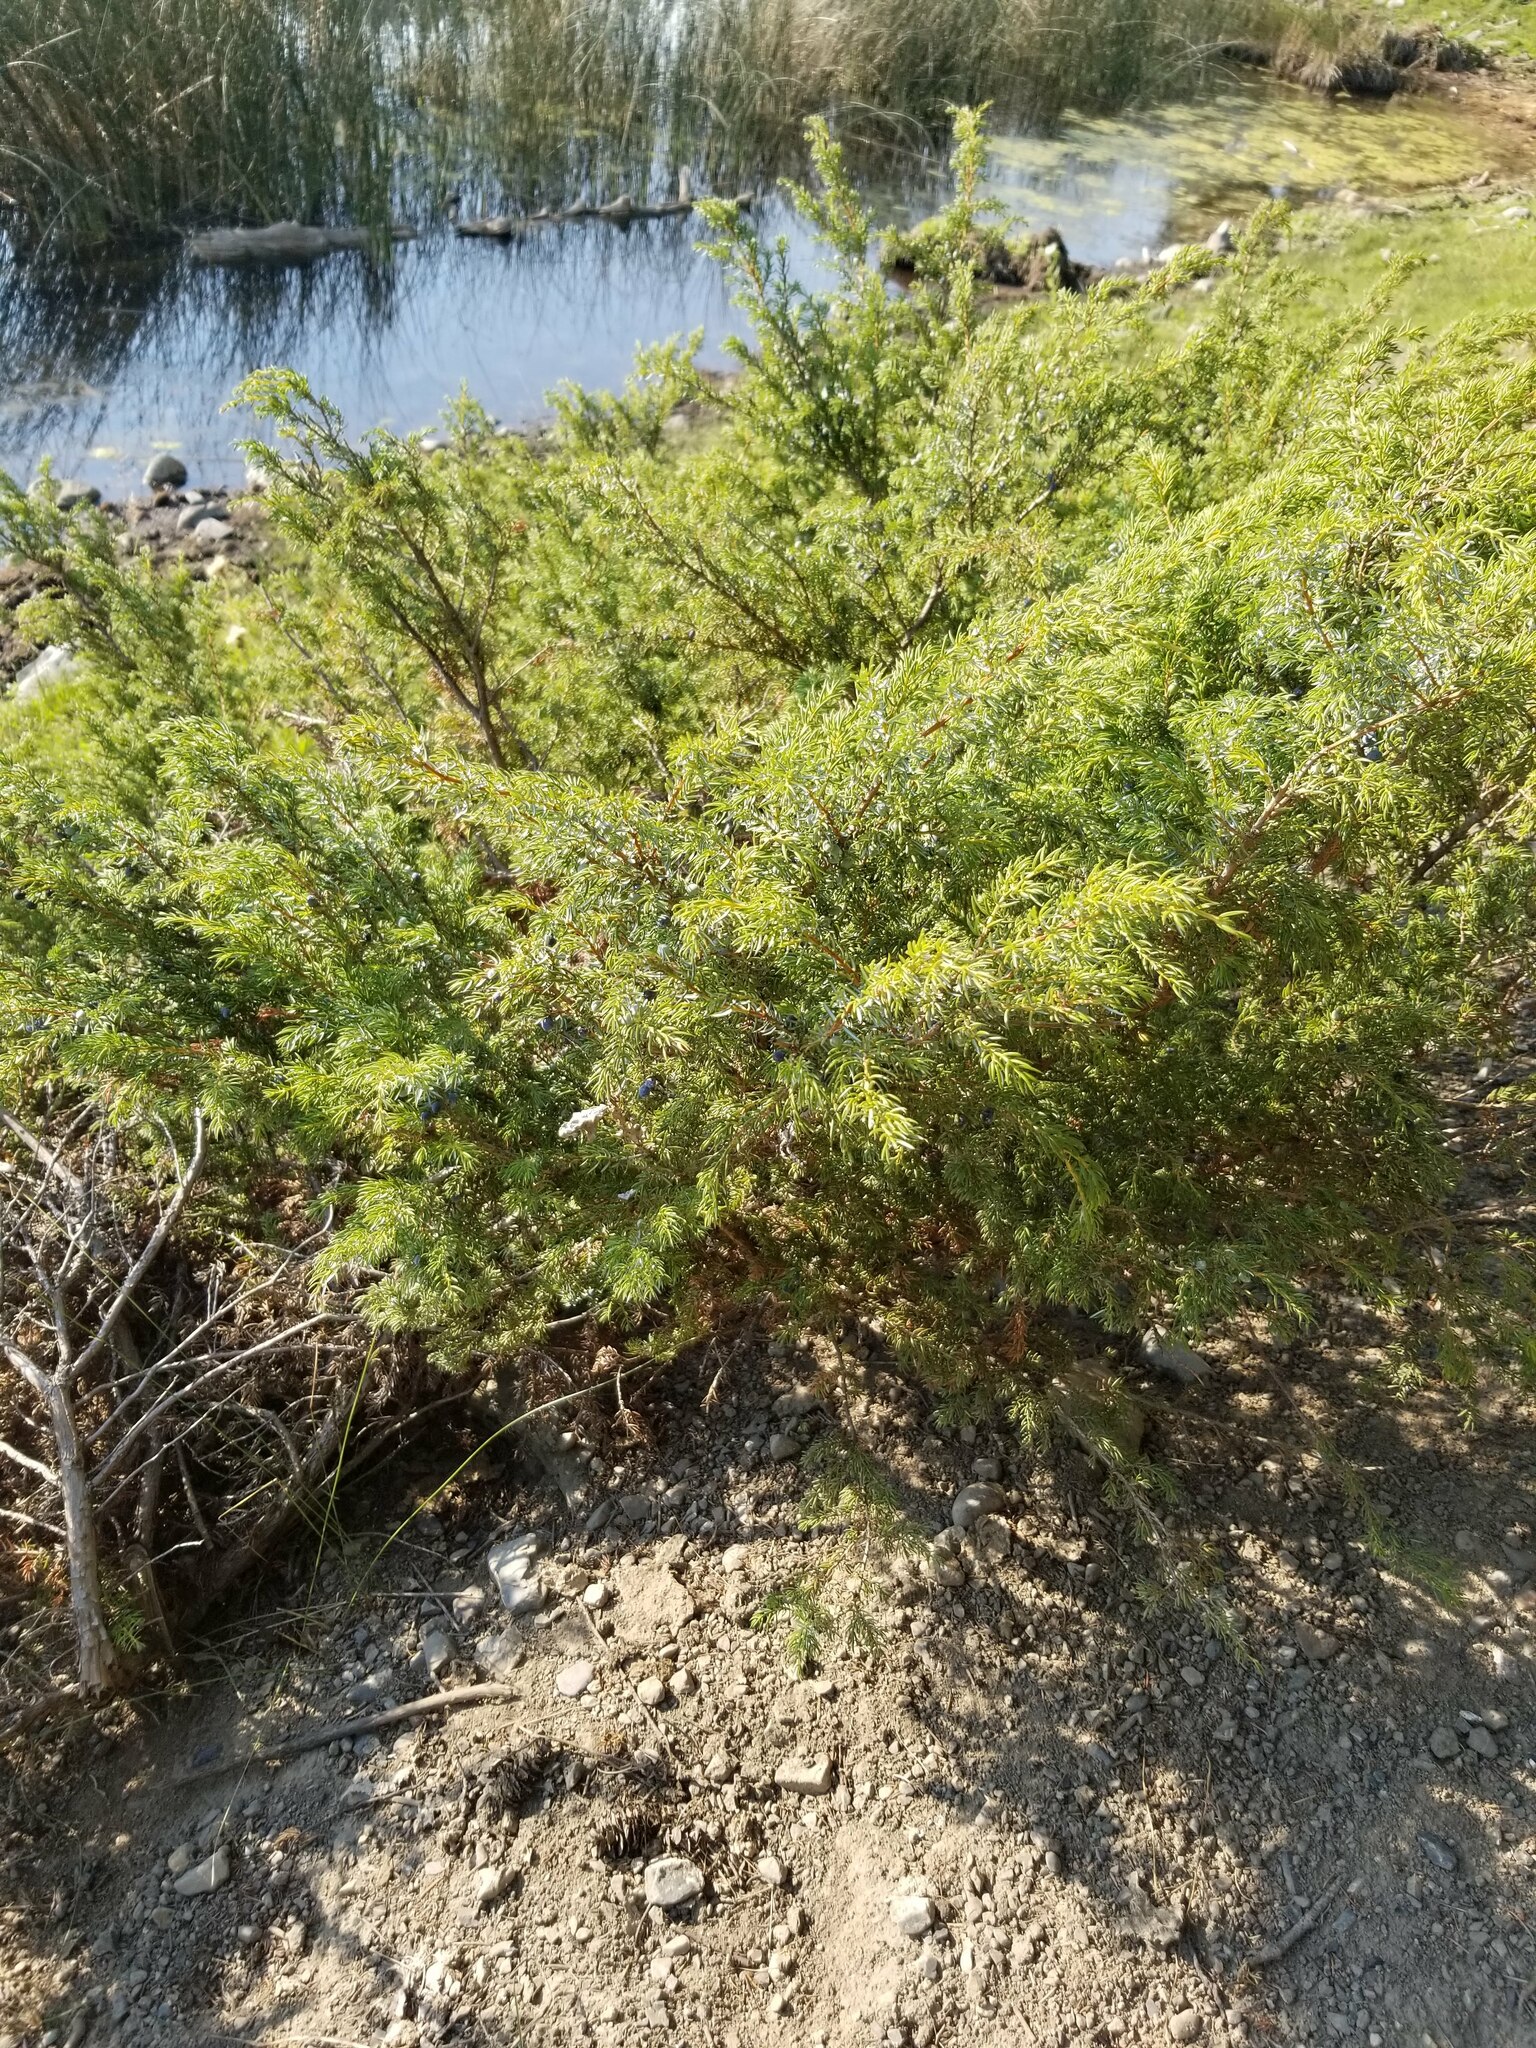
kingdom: Plantae
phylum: Tracheophyta
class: Pinopsida
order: Pinales
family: Cupressaceae
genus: Juniperus
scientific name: Juniperus communis
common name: Common juniper
